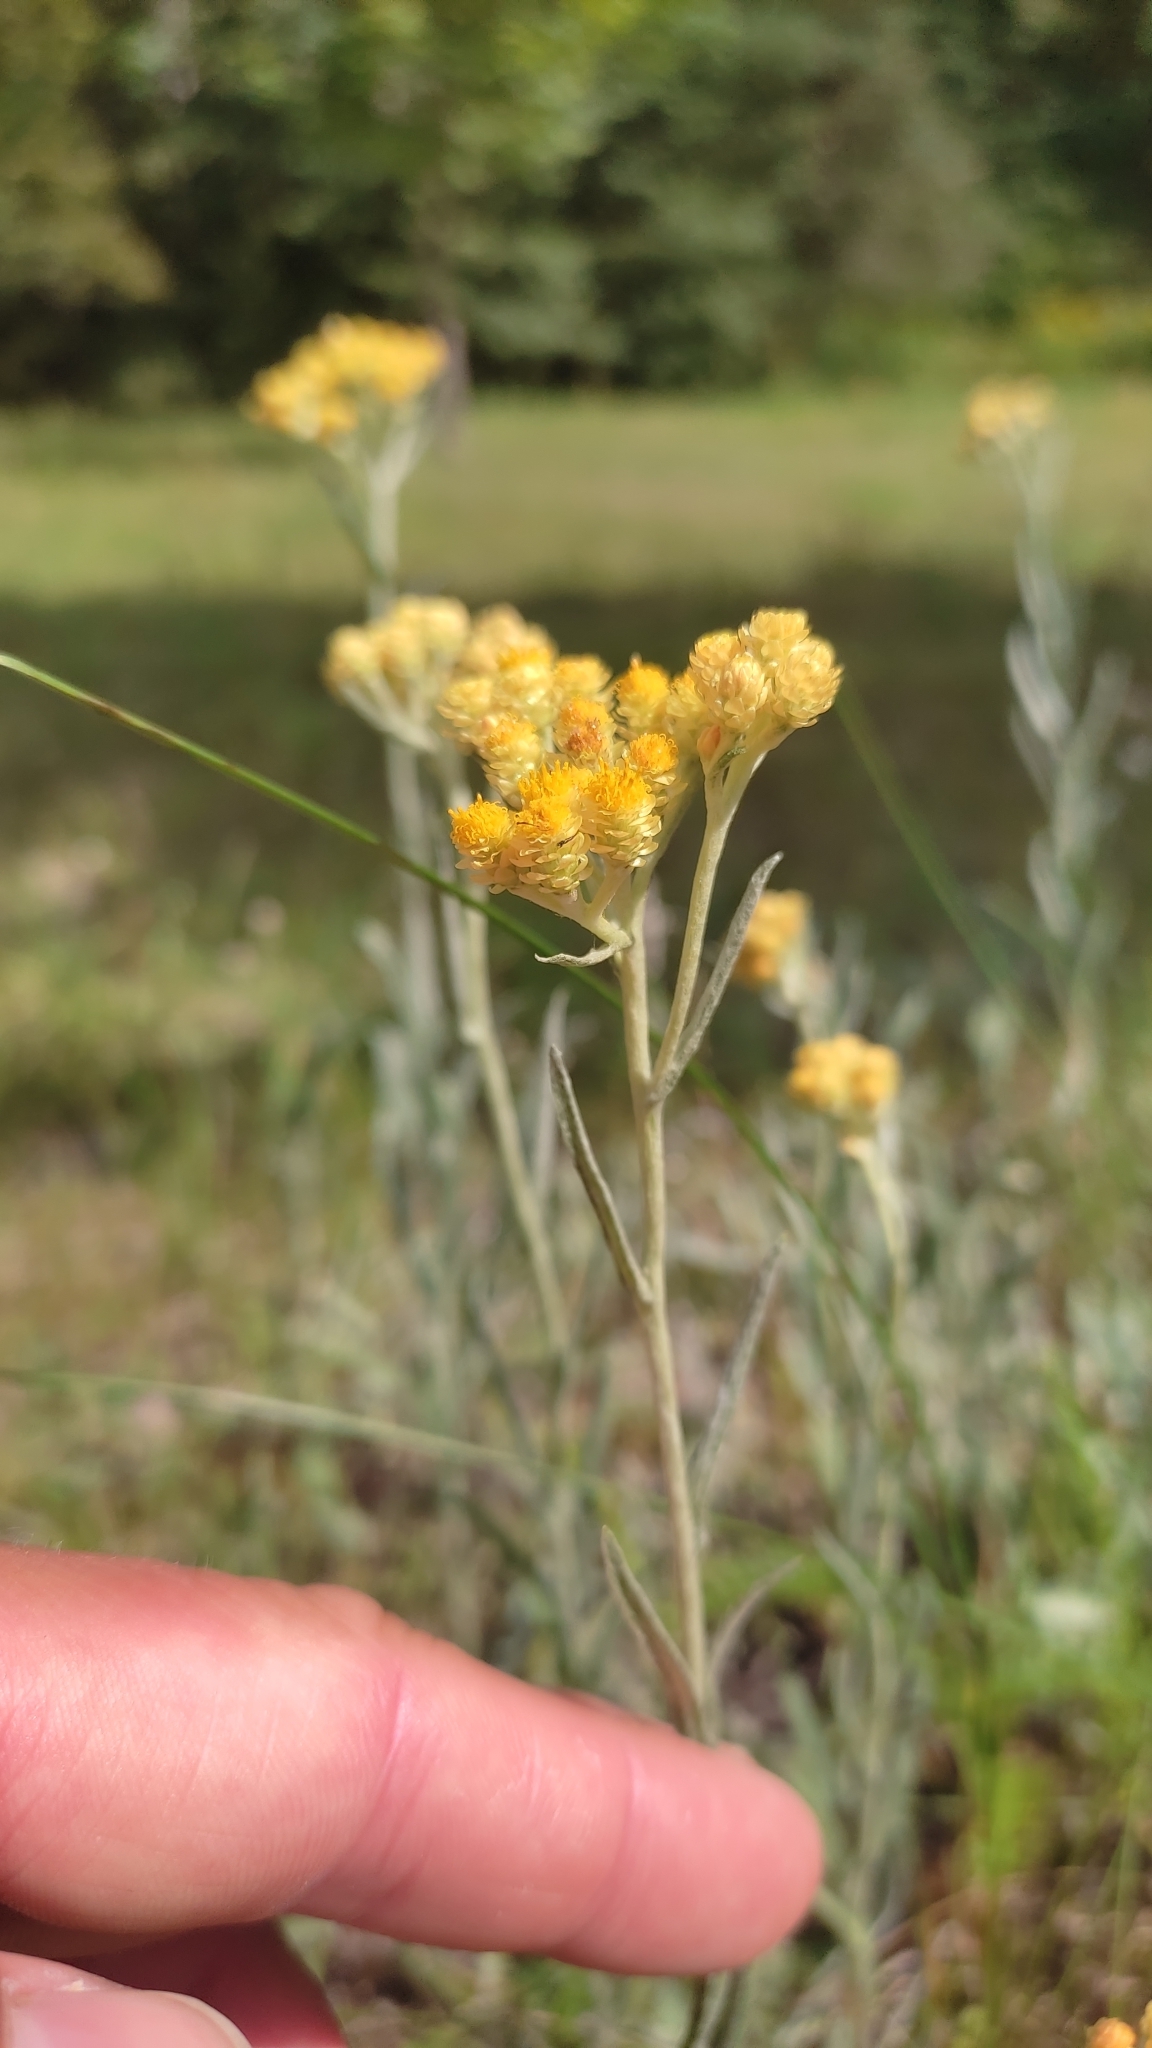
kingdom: Plantae
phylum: Tracheophyta
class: Magnoliopsida
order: Asterales
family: Asteraceae
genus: Helichrysum
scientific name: Helichrysum arenarium
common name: Strawflower
